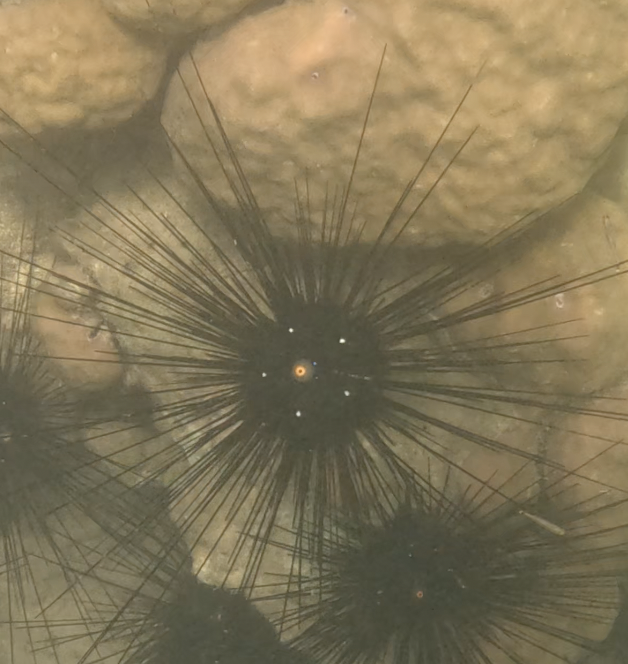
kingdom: Animalia
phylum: Echinodermata
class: Echinoidea
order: Diadematoida
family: Diadematidae
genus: Diadema
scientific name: Diadema setosum
